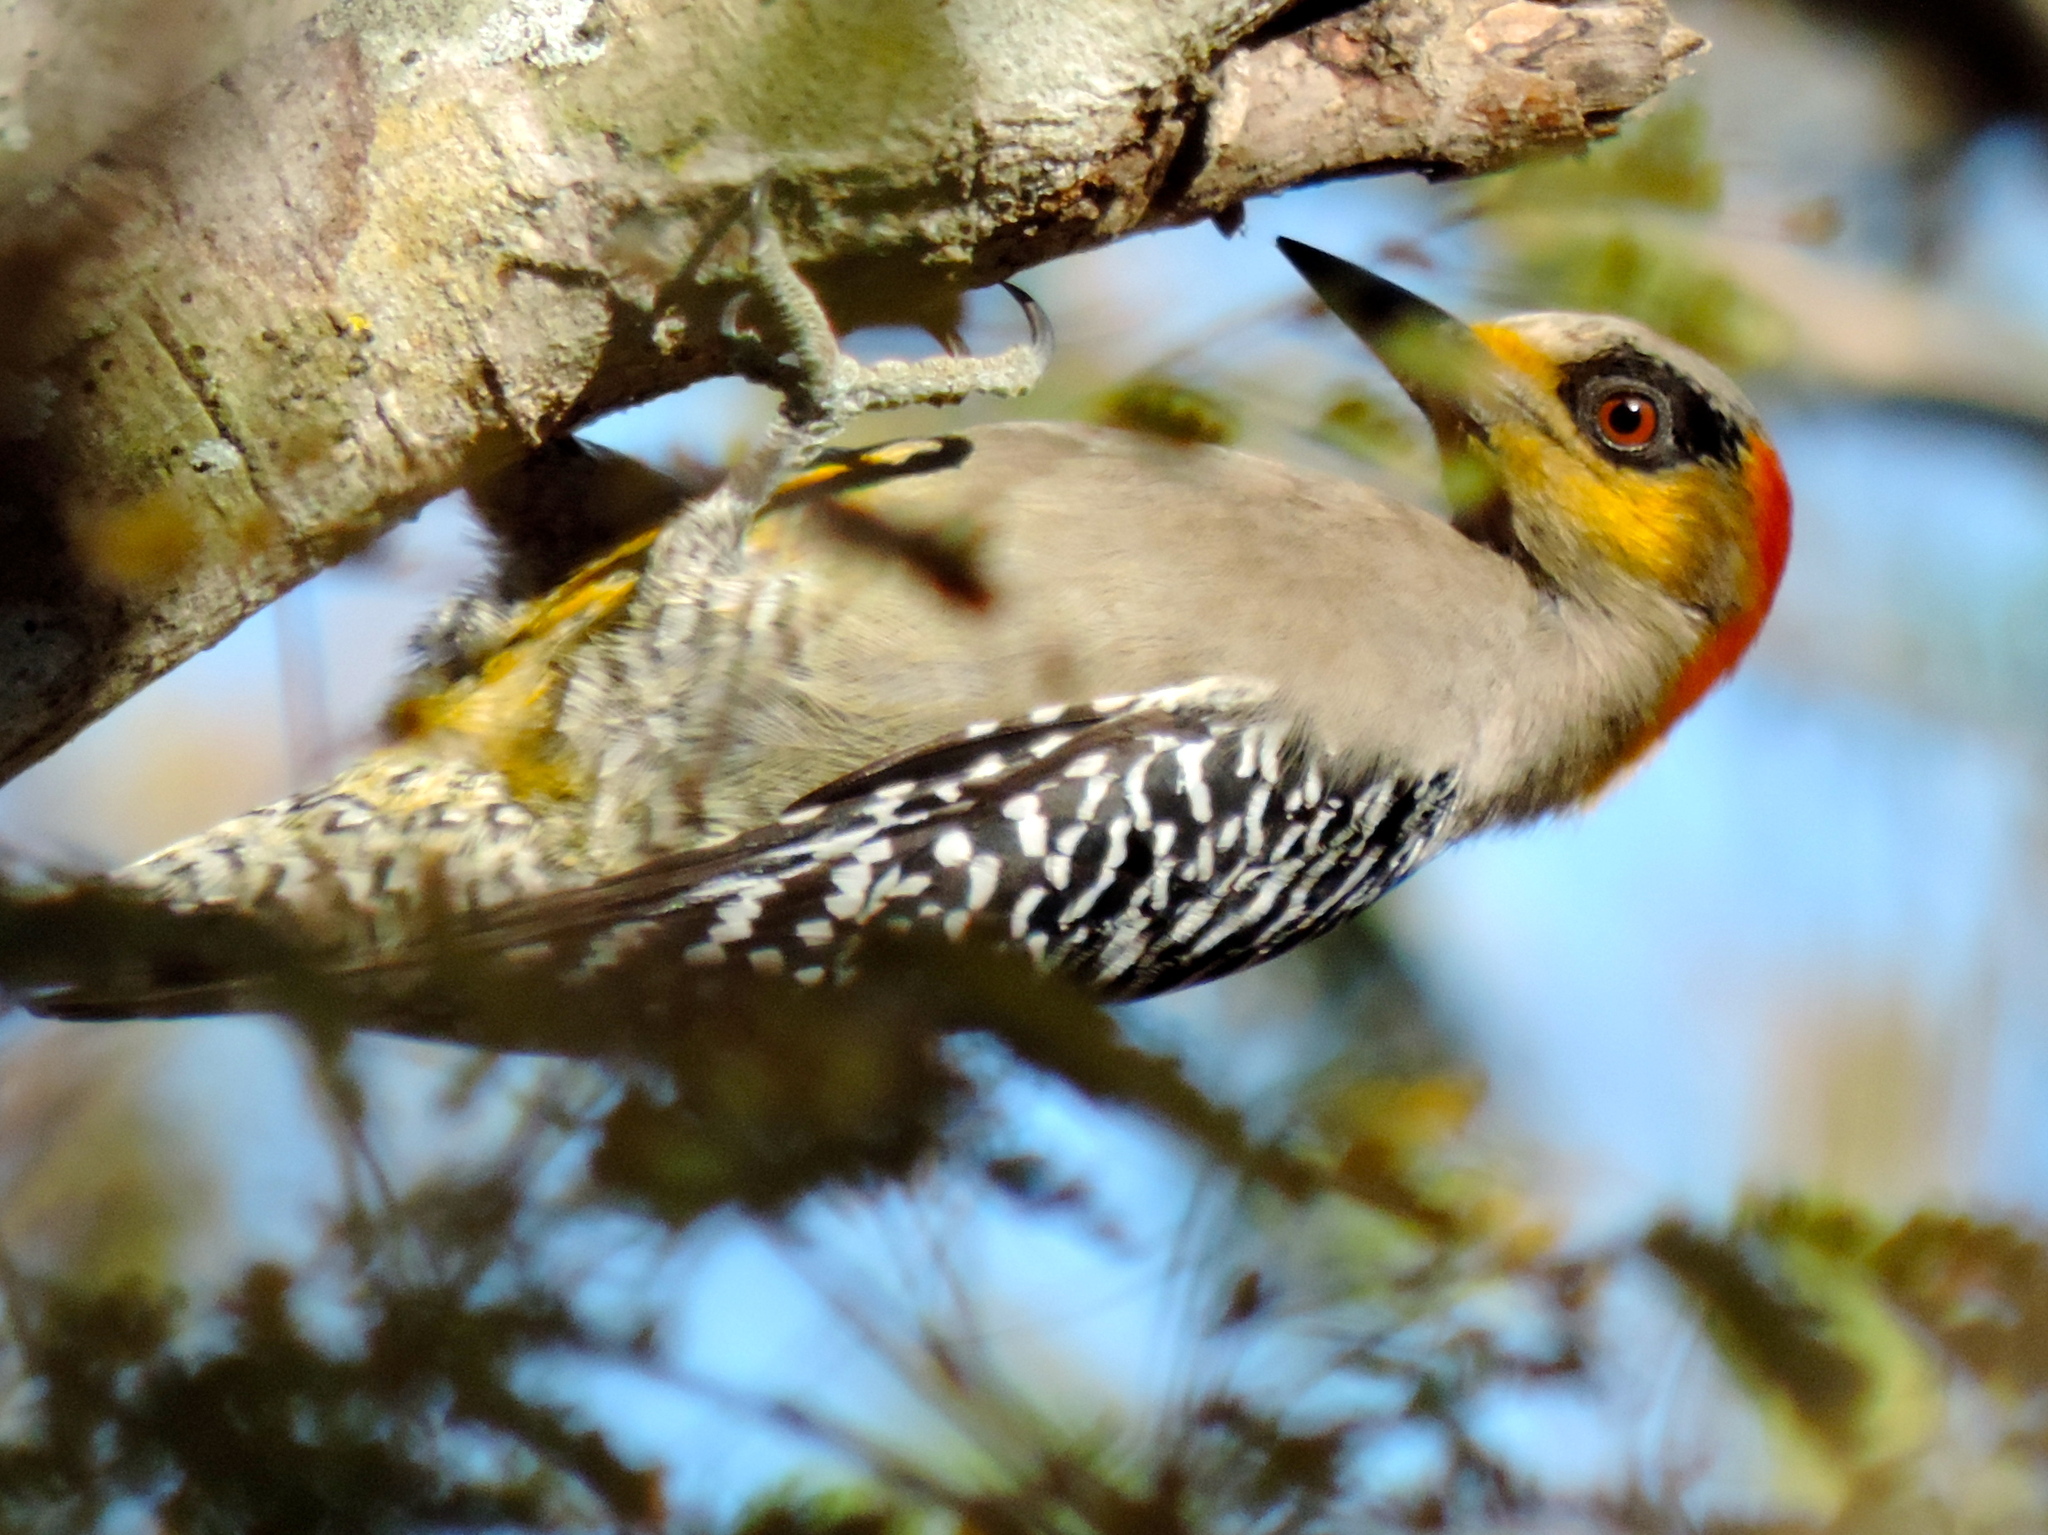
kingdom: Animalia
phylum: Chordata
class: Aves
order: Piciformes
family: Picidae
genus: Melanerpes
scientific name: Melanerpes chrysogenys
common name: Golden-cheeked woodpecker
